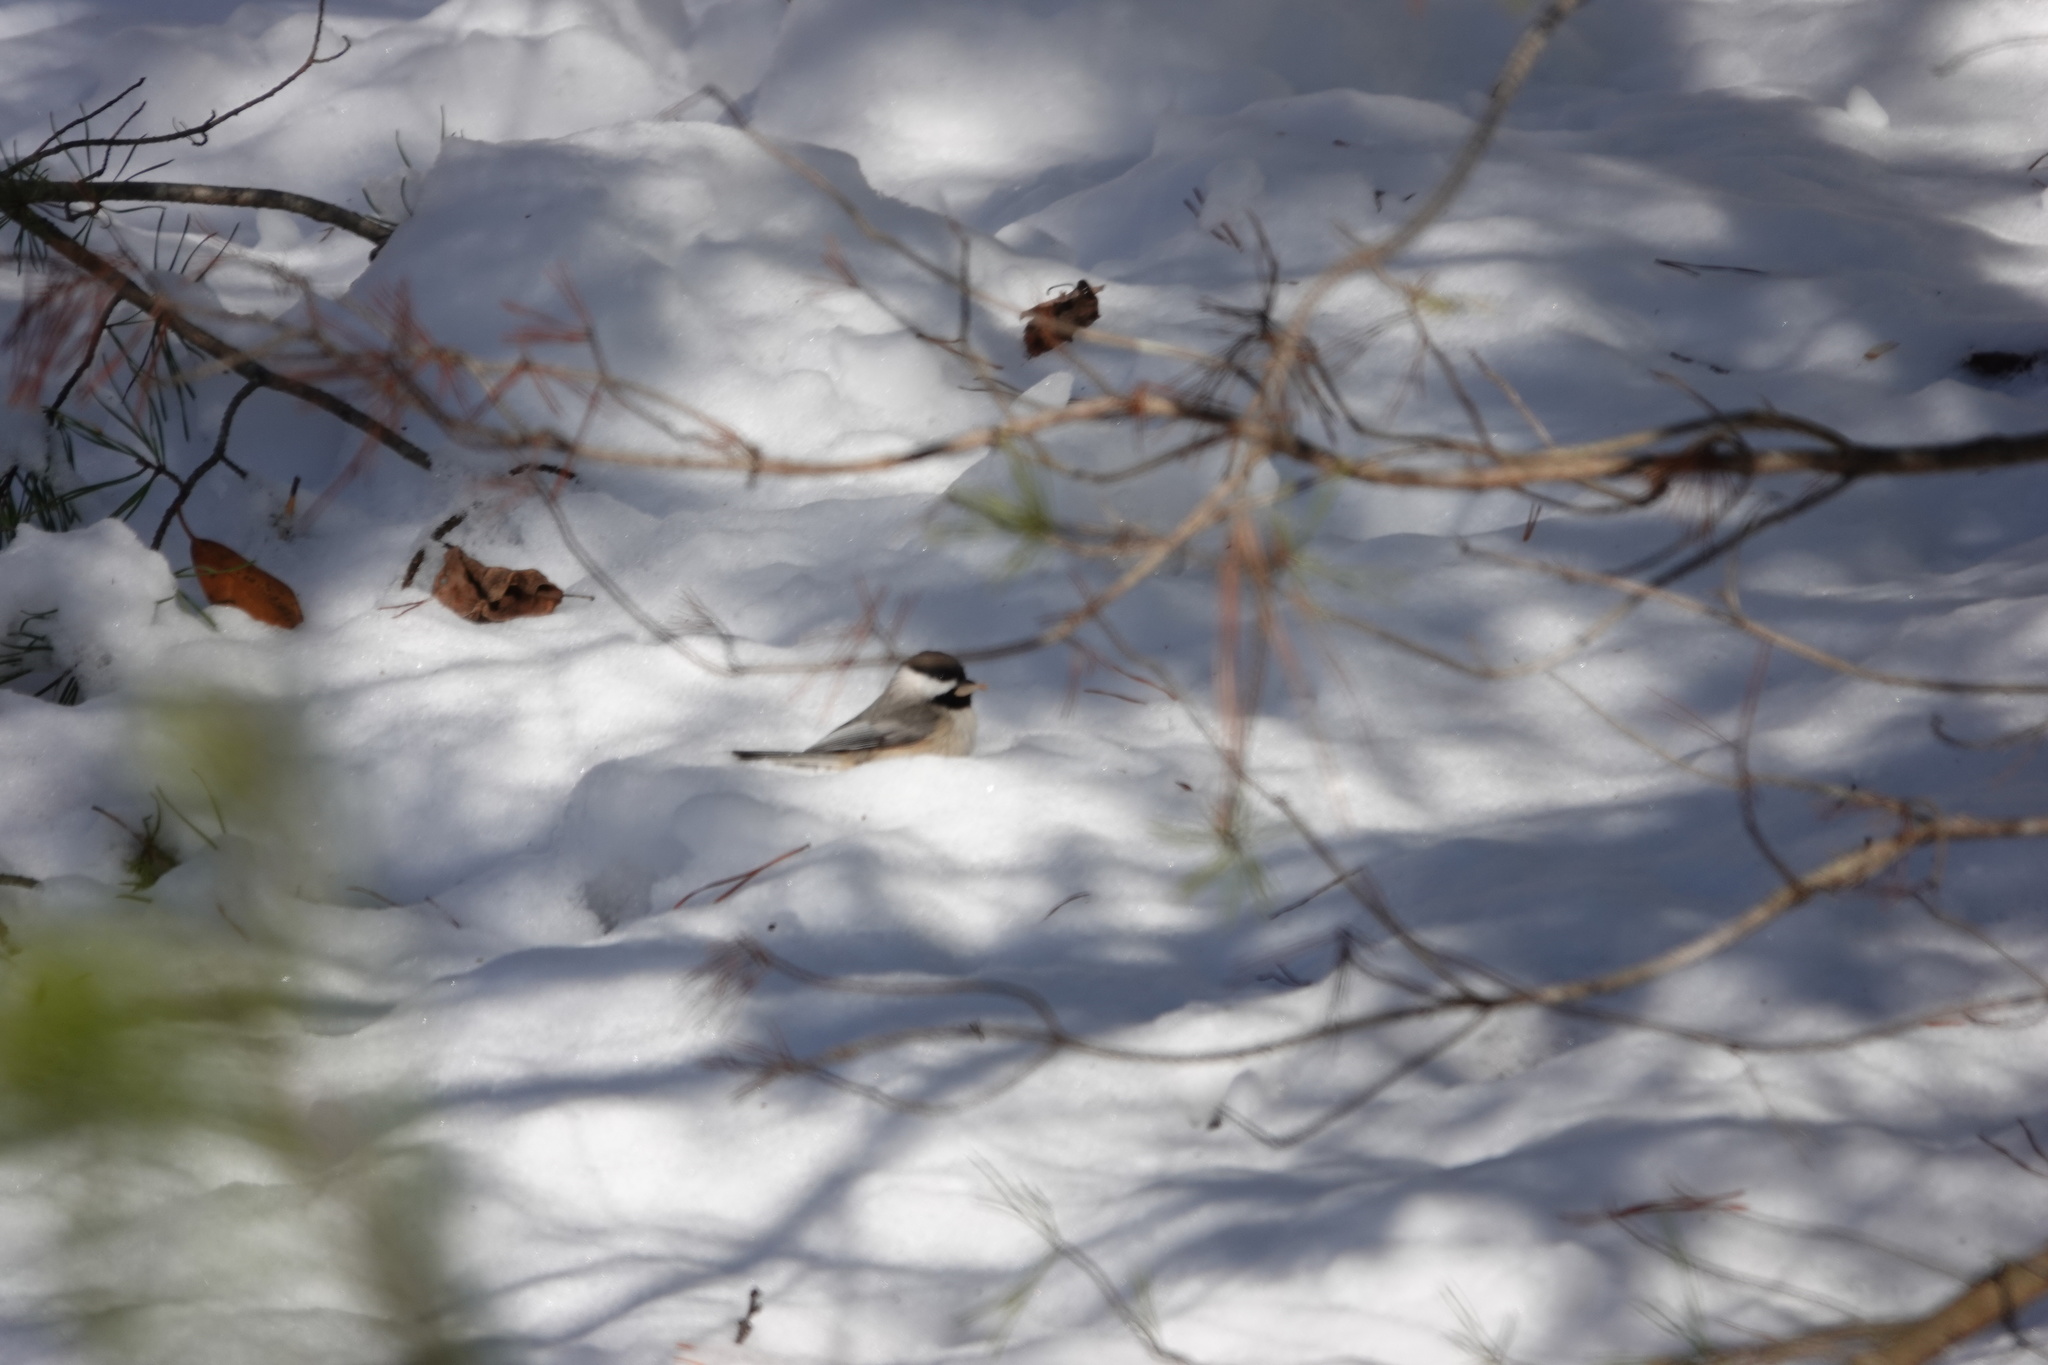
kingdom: Animalia
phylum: Chordata
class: Aves
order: Passeriformes
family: Paridae
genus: Poecile
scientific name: Poecile carolinensis
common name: Carolina chickadee
